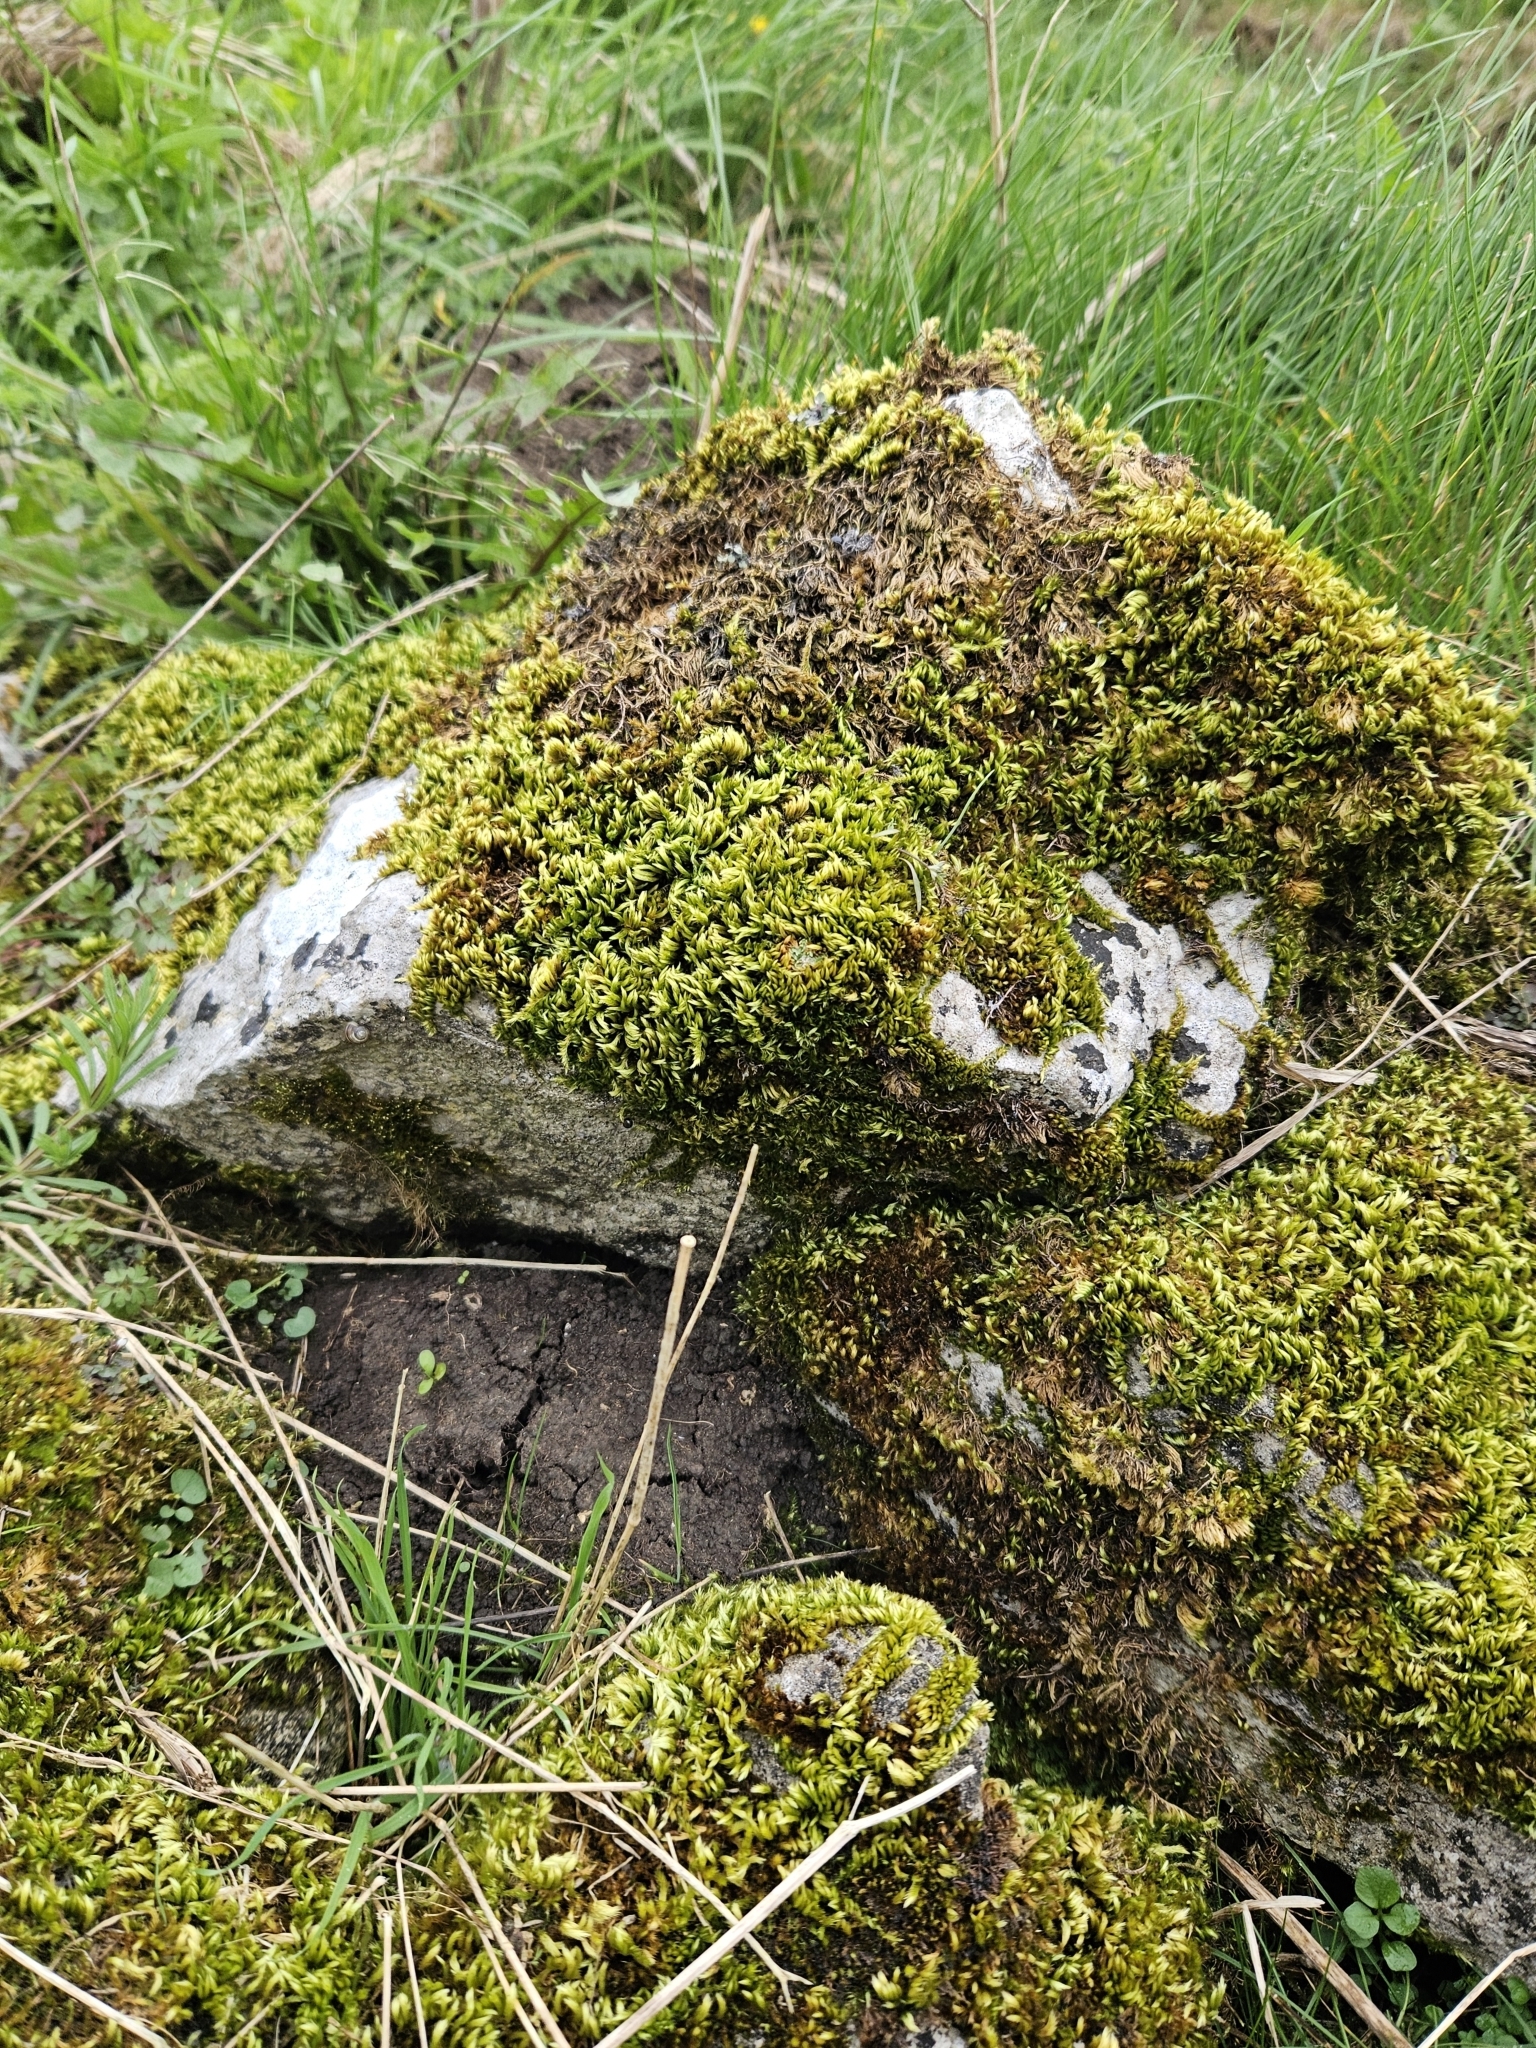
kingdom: Plantae
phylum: Bryophyta
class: Bryopsida
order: Hypnales
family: Brachytheciaceae
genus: Homalothecium
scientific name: Homalothecium sericeum
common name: Silky wall feather-moss
